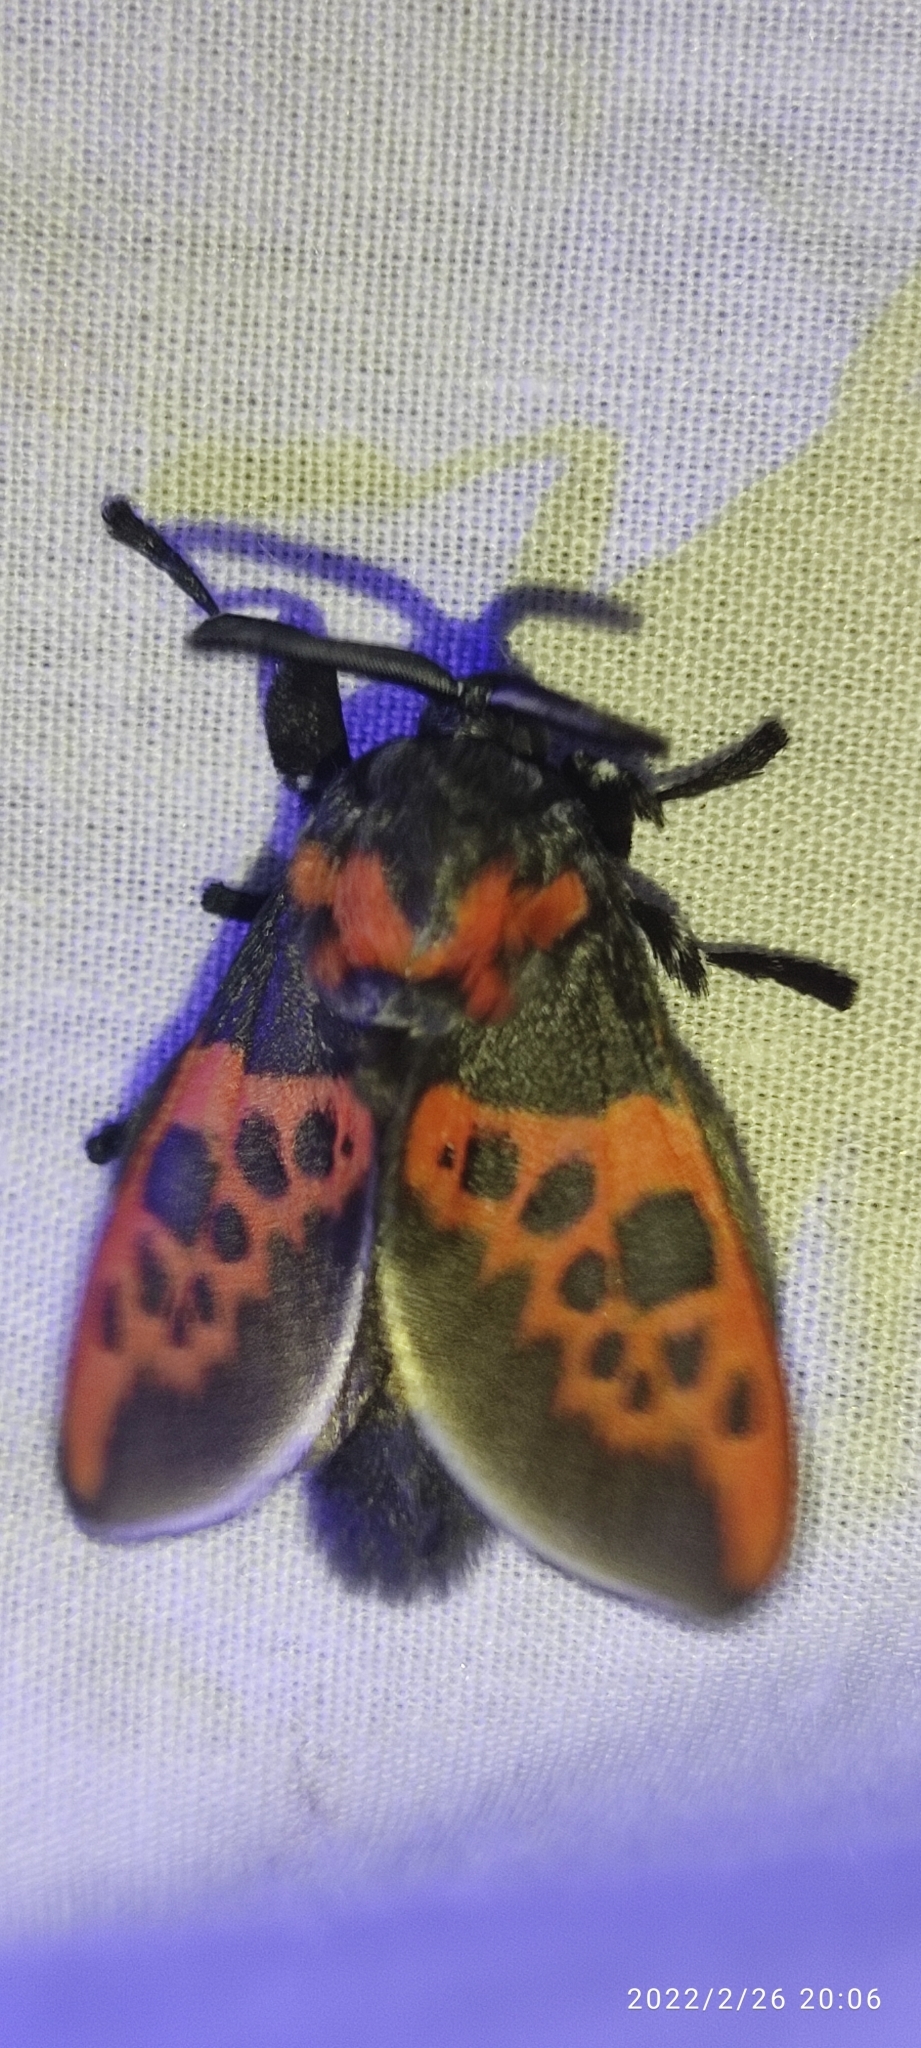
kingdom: Animalia
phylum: Arthropoda
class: Insecta
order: Lepidoptera
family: Megalopygidae
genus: Langucys
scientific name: Langucys onorei
